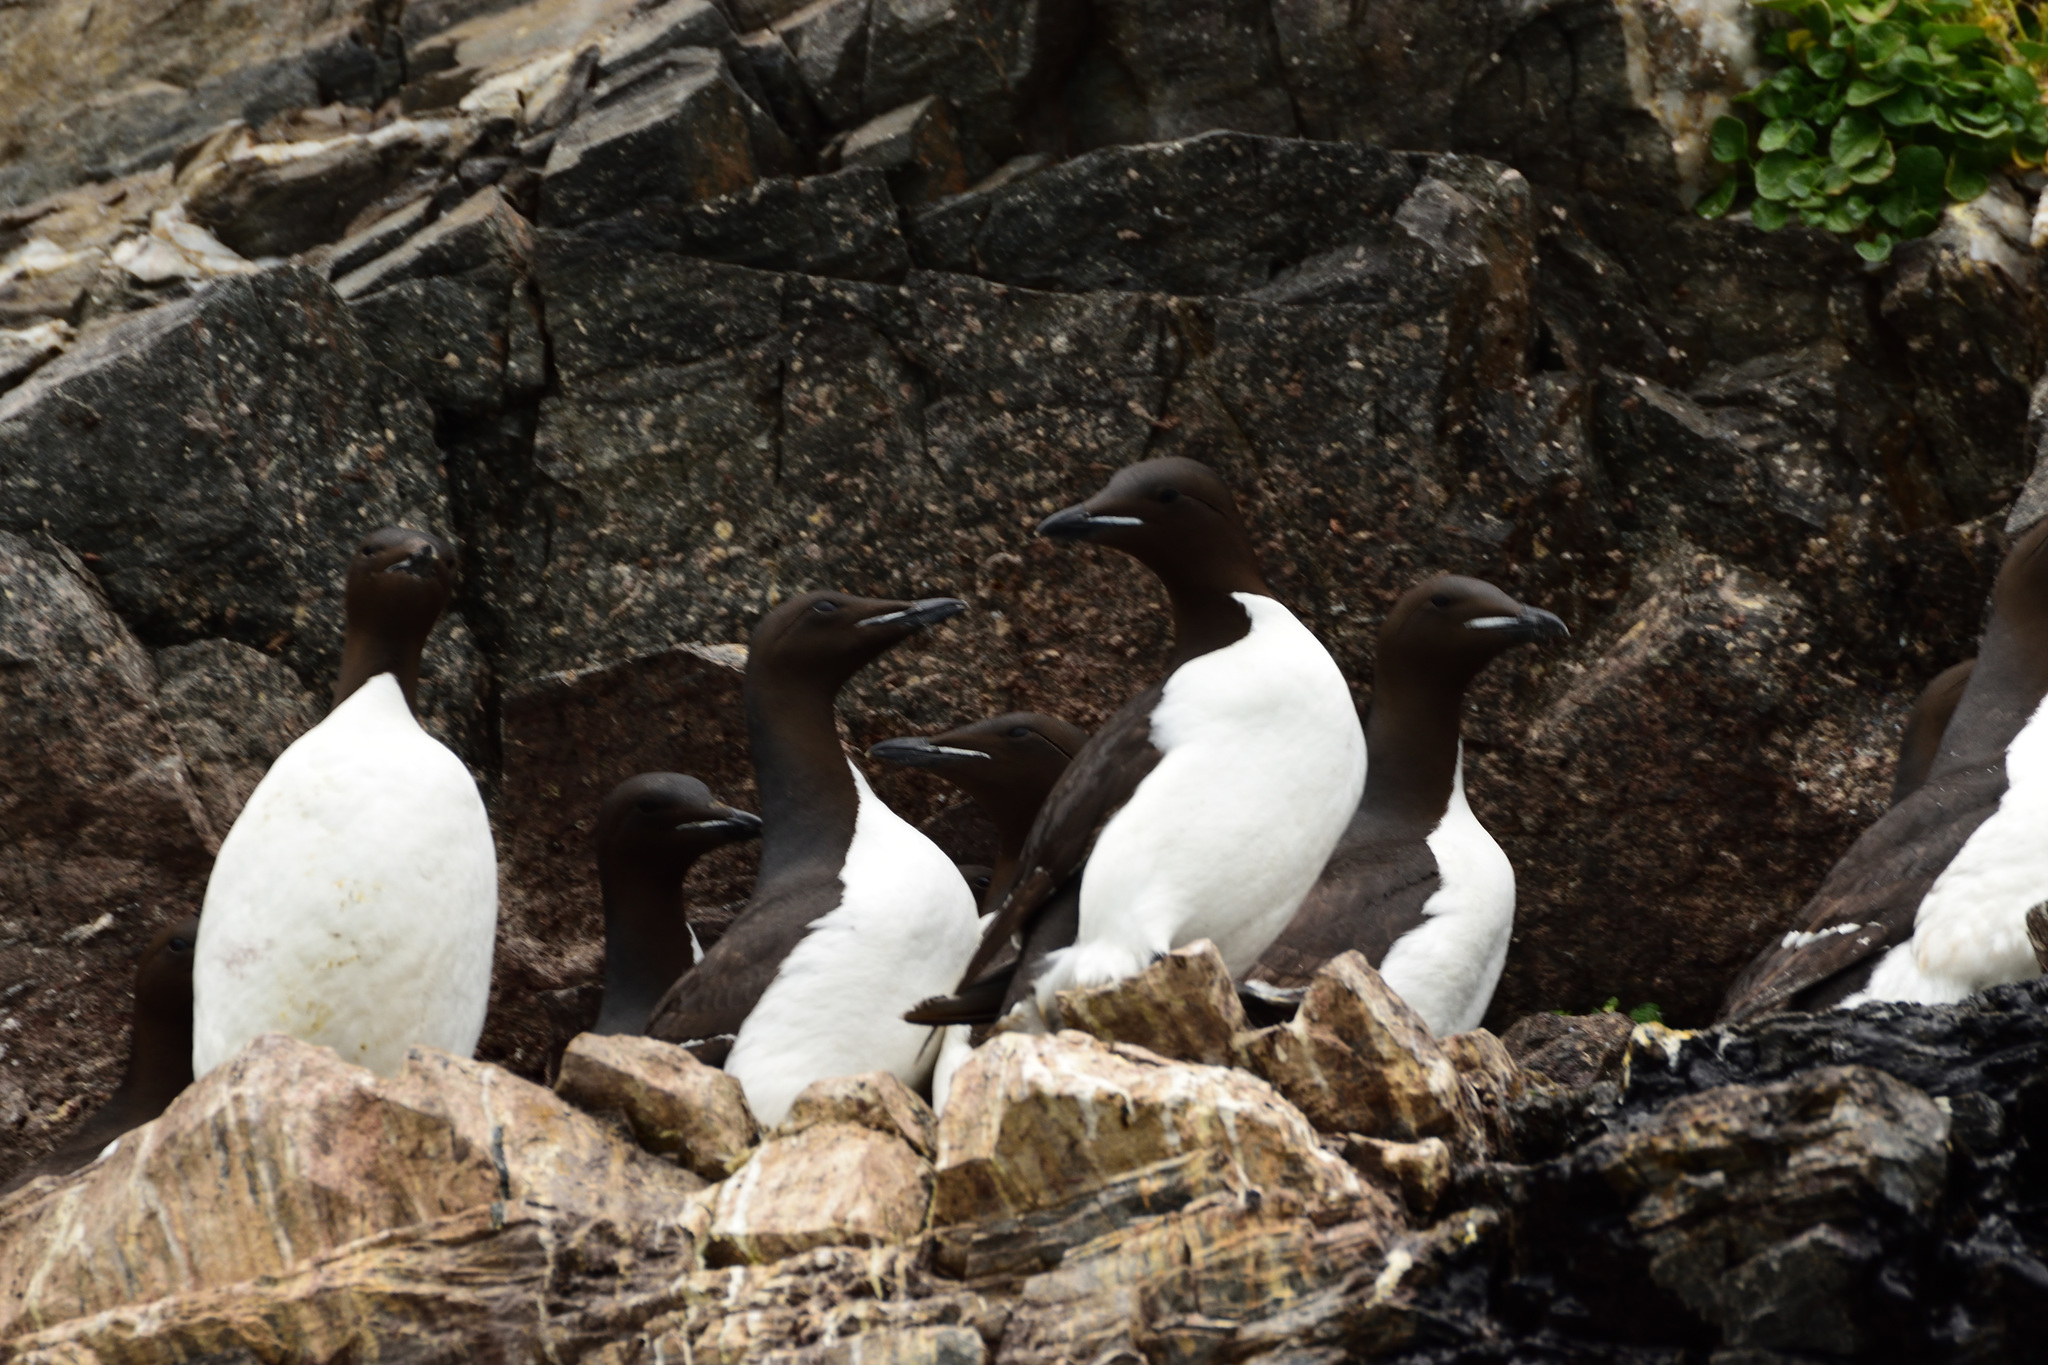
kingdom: Animalia
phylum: Chordata
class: Aves
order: Charadriiformes
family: Alcidae
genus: Uria
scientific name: Uria lomvia
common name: Thick-billed murre
